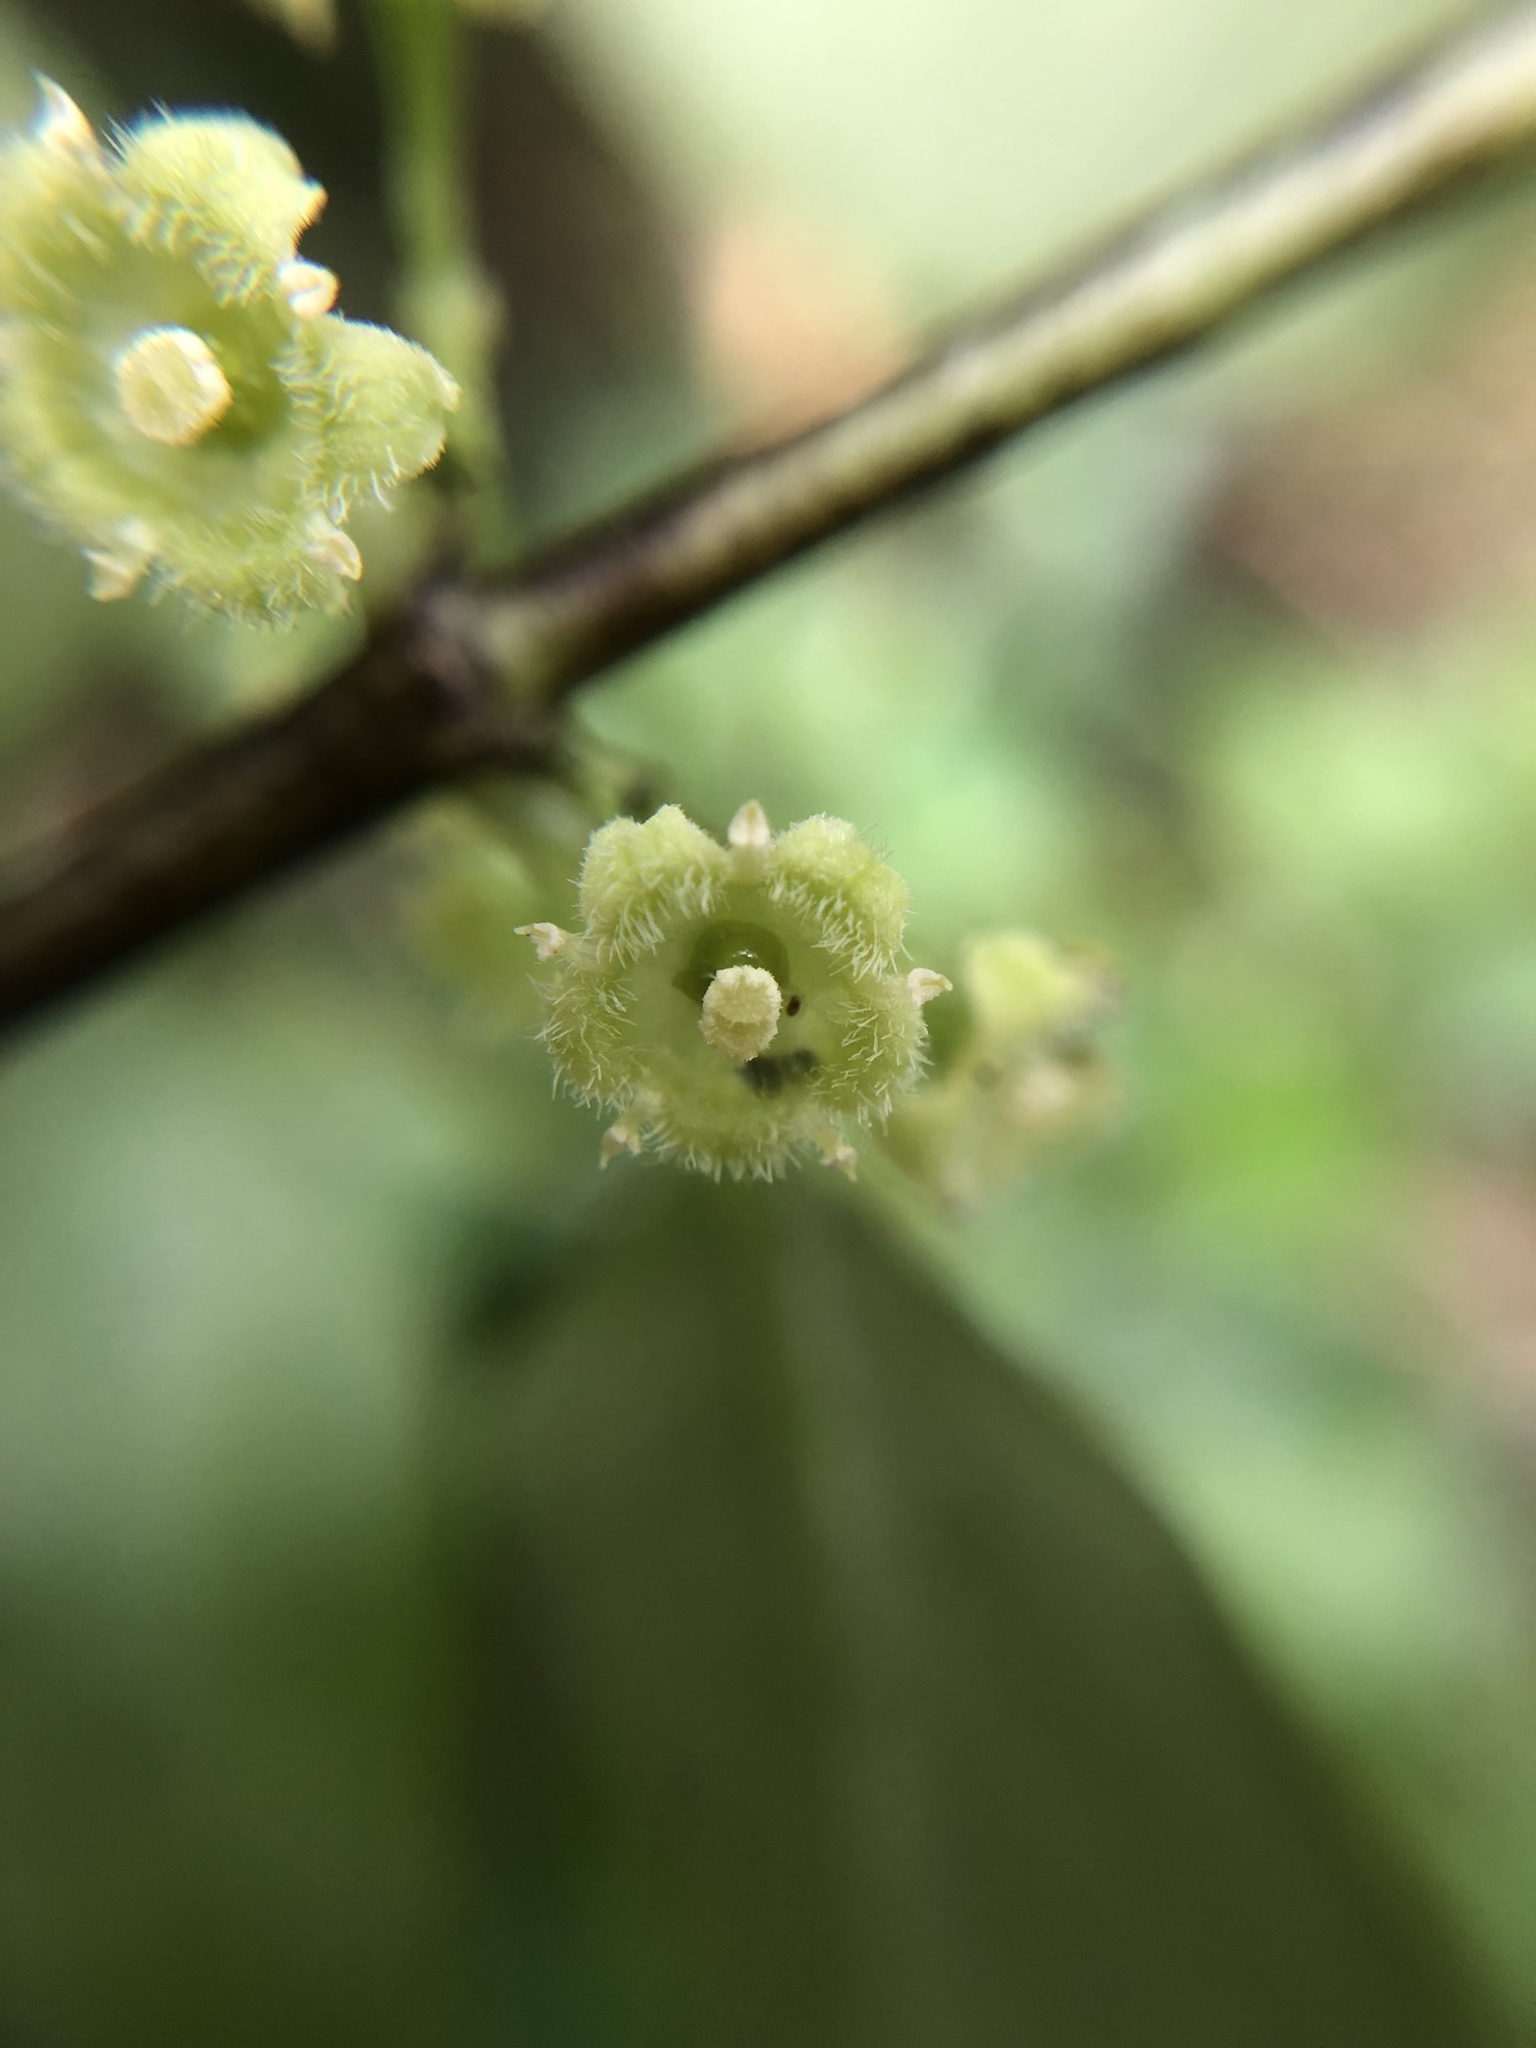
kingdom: Plantae
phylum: Tracheophyta
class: Magnoliopsida
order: Gentianales
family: Loganiaceae
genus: Geniostoma
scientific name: Geniostoma ligustrifolium
